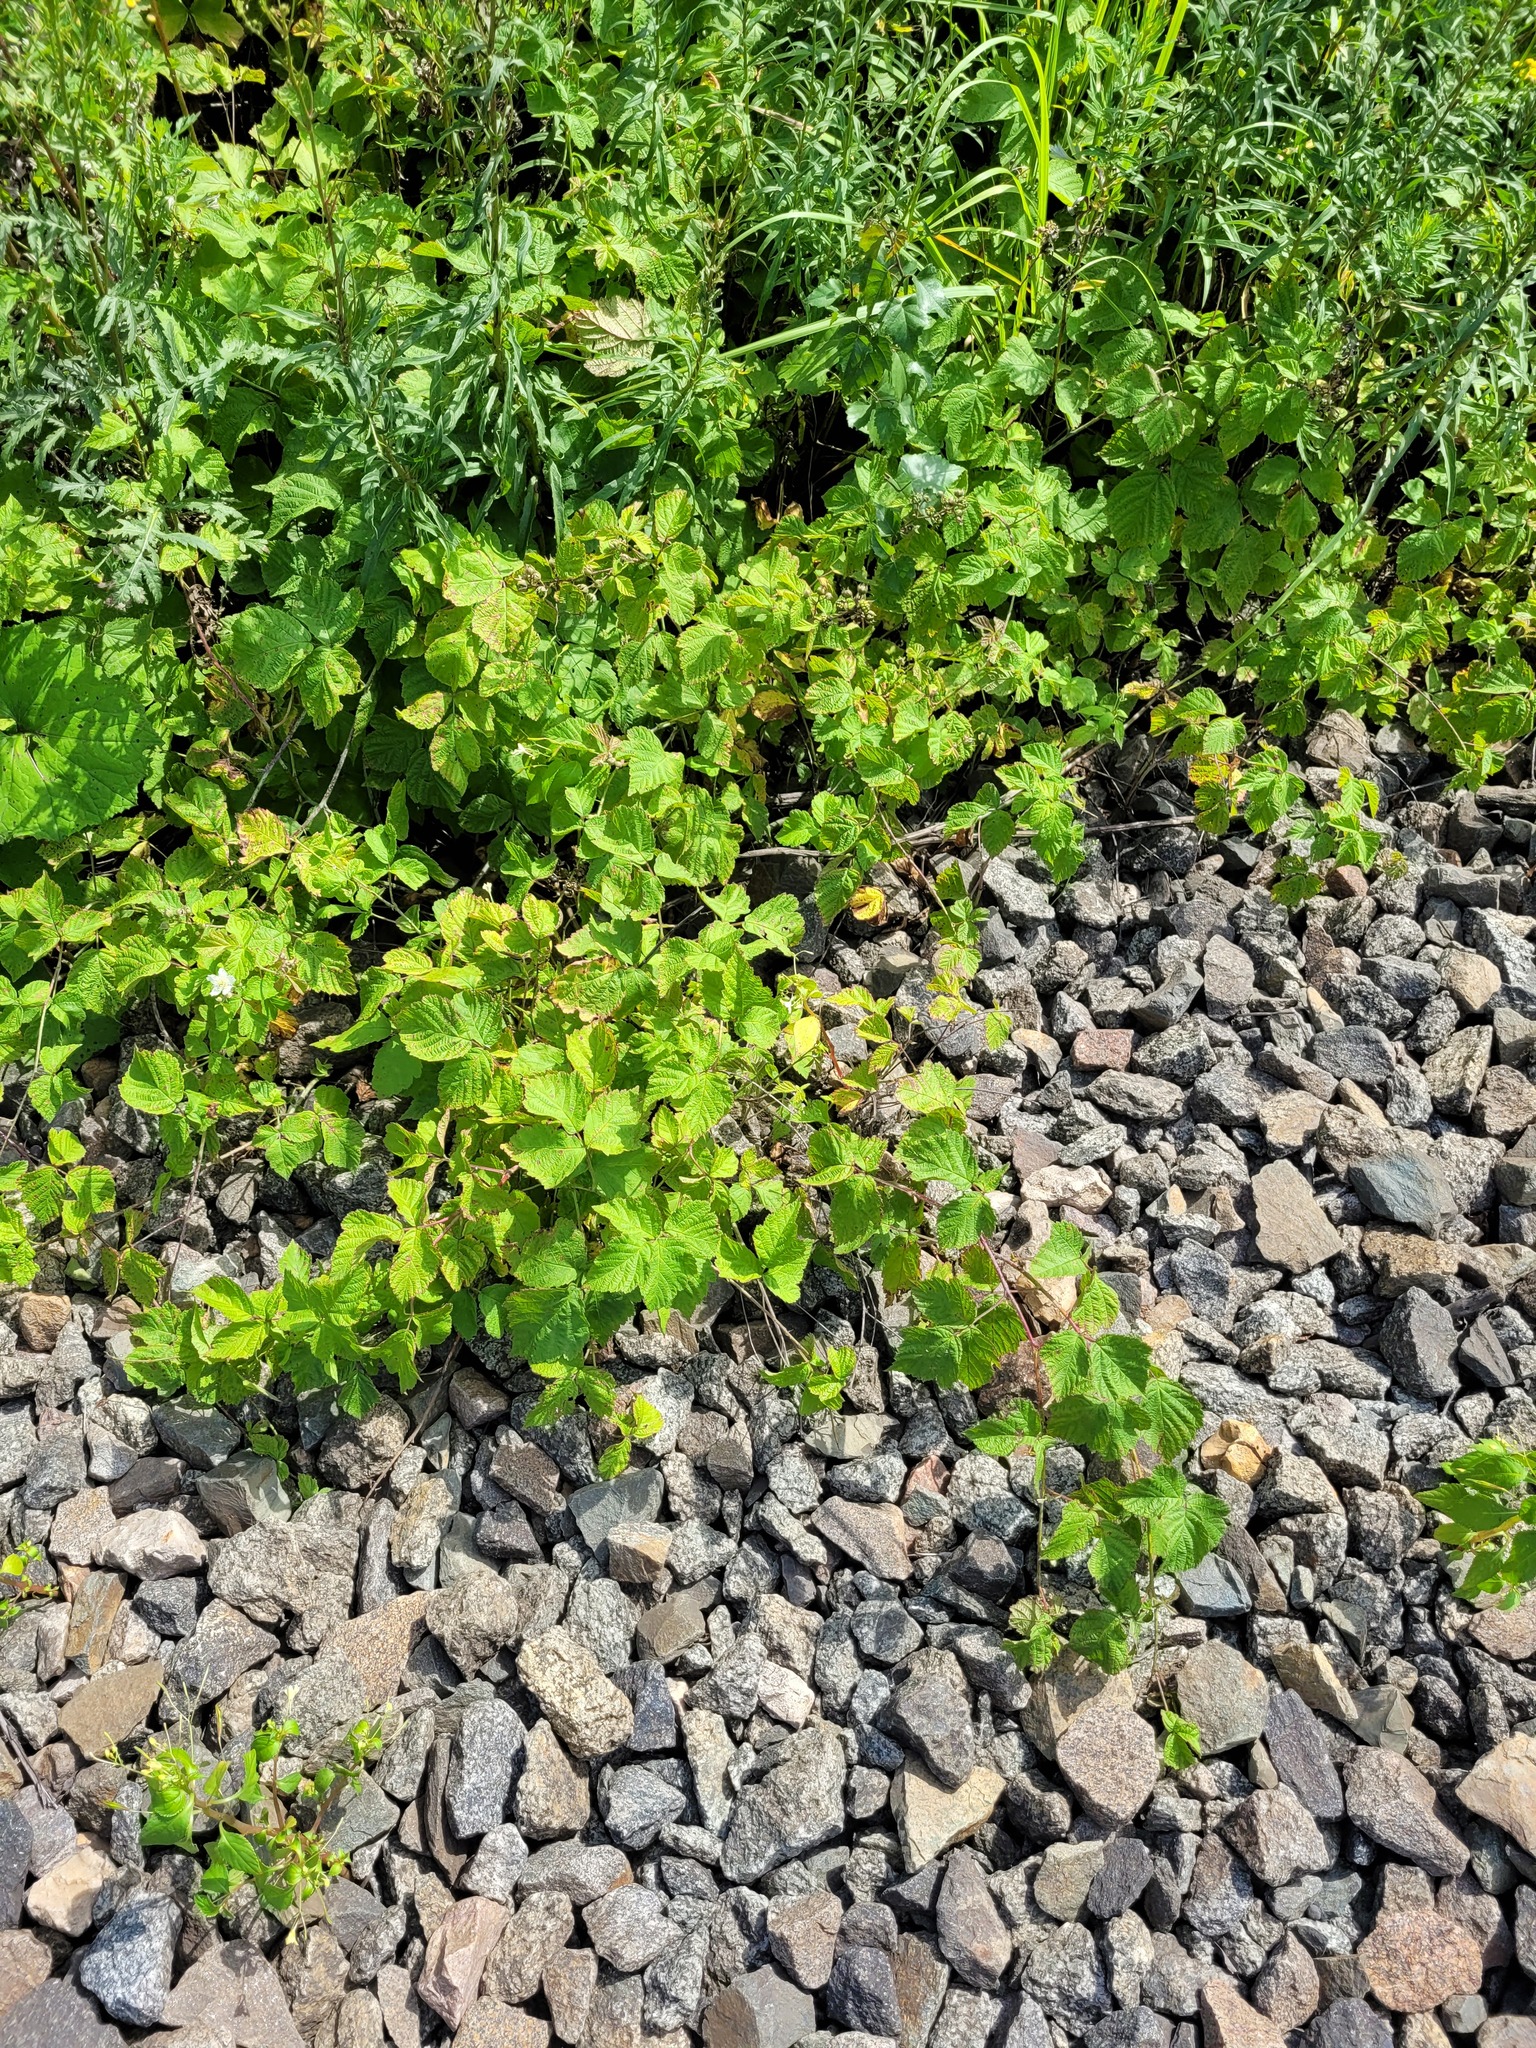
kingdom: Plantae
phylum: Tracheophyta
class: Magnoliopsida
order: Rosales
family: Rosaceae
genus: Rubus
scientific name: Rubus caesius
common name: Dewberry
